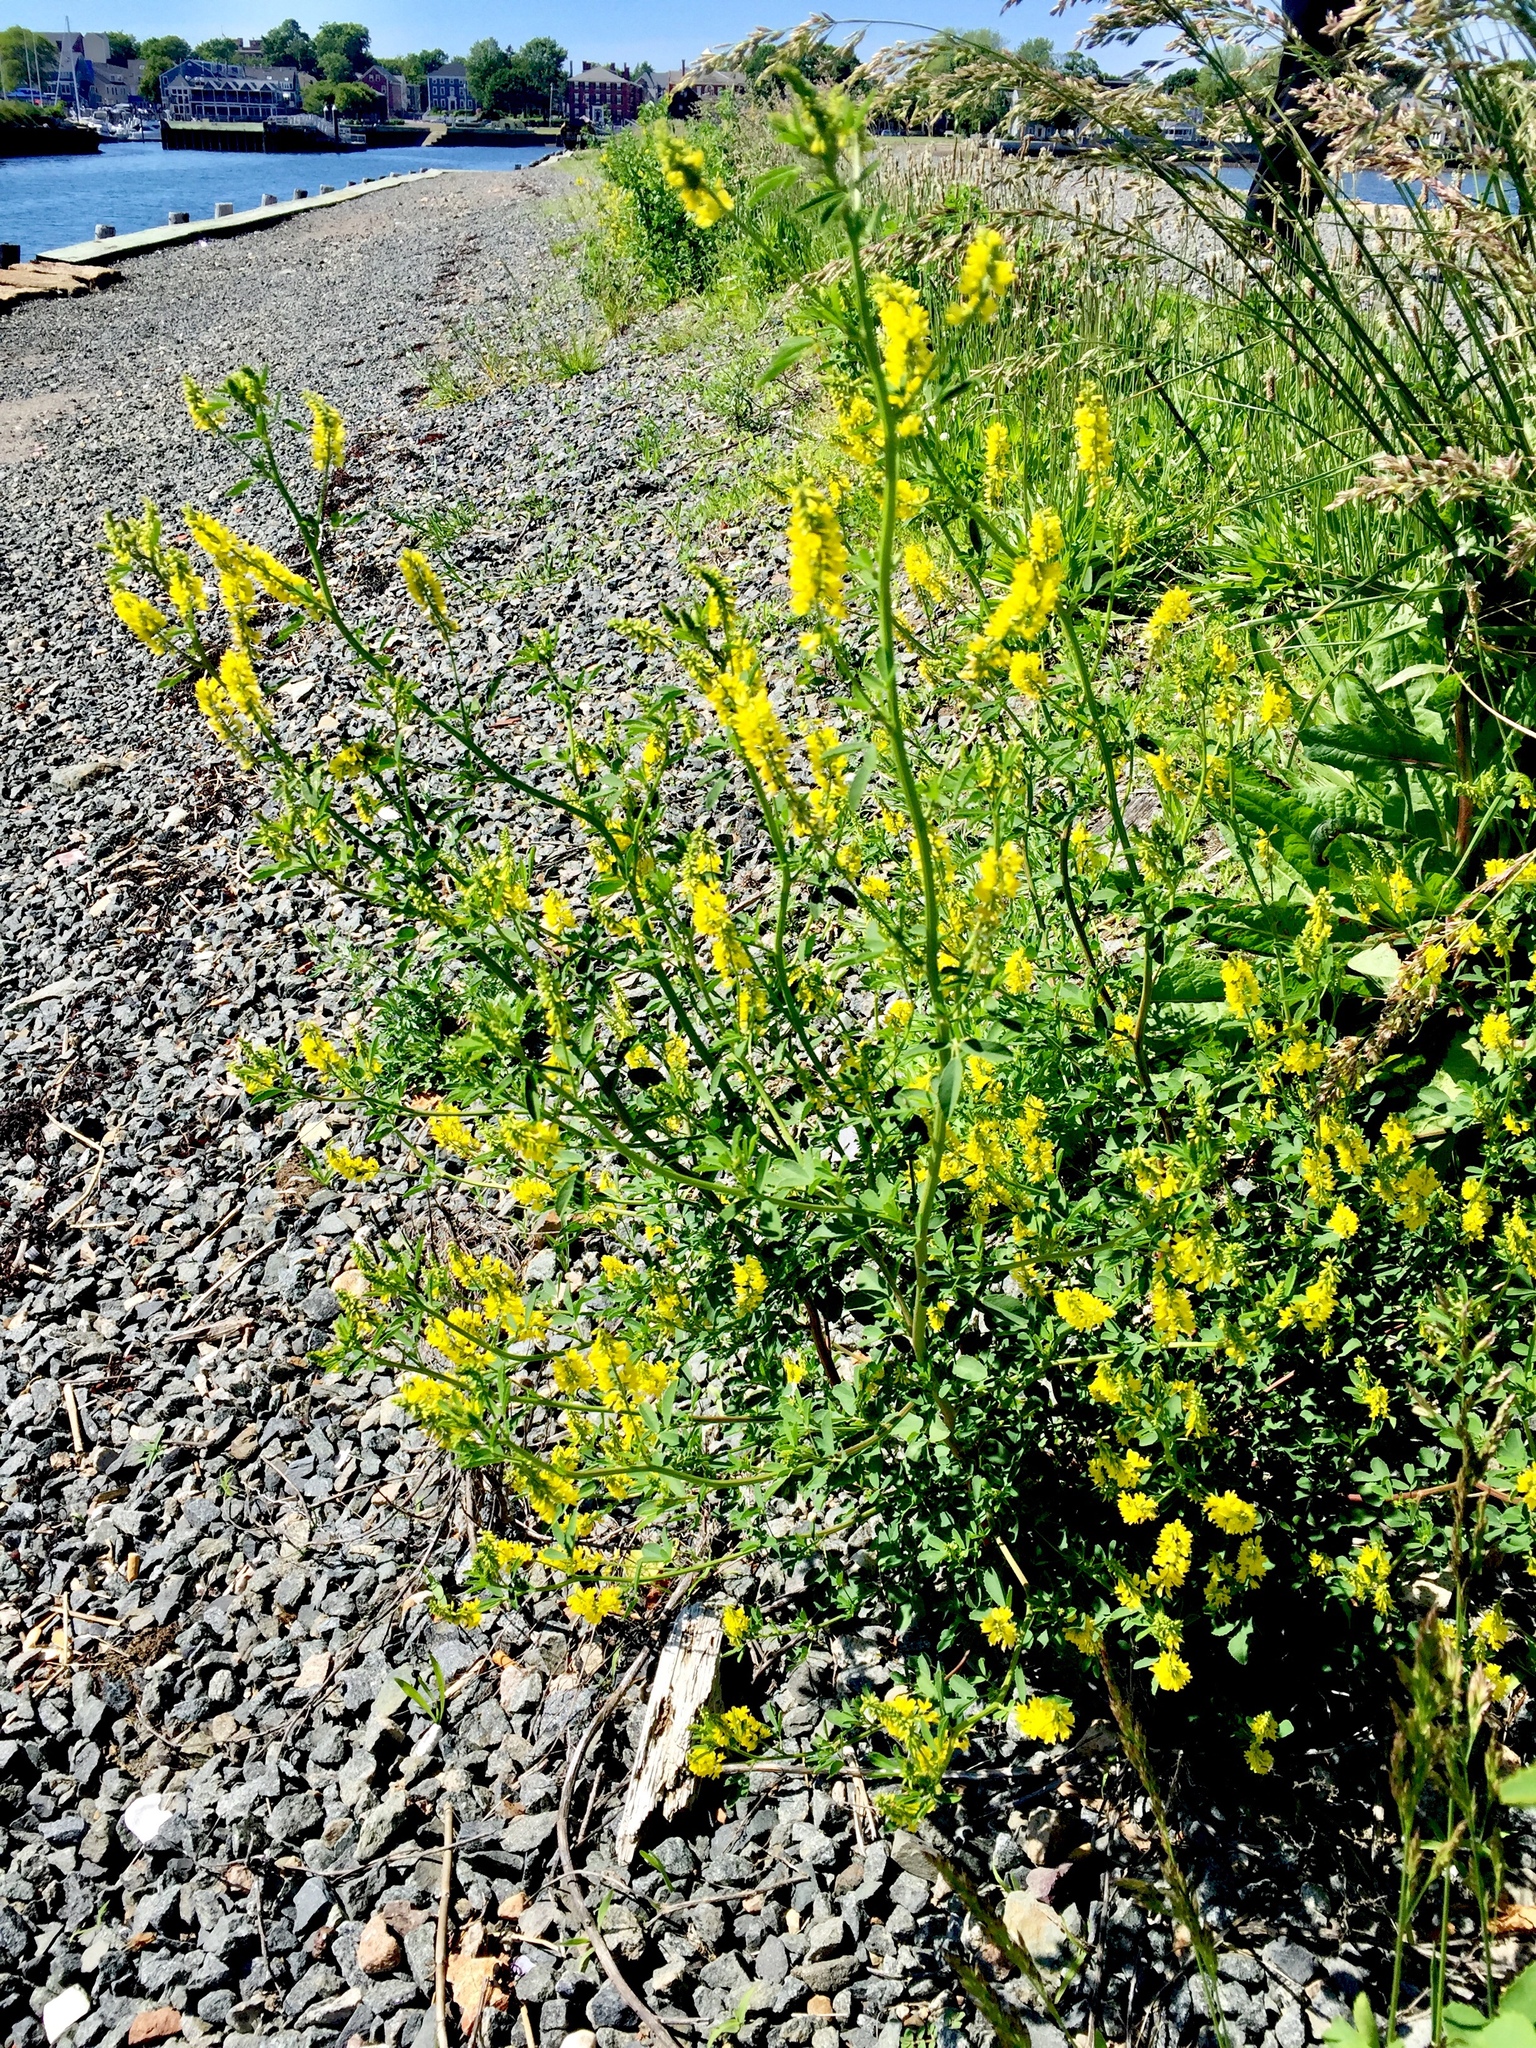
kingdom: Plantae
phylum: Tracheophyta
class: Magnoliopsida
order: Fabales
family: Fabaceae
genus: Melilotus
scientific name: Melilotus officinalis
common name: Sweetclover
